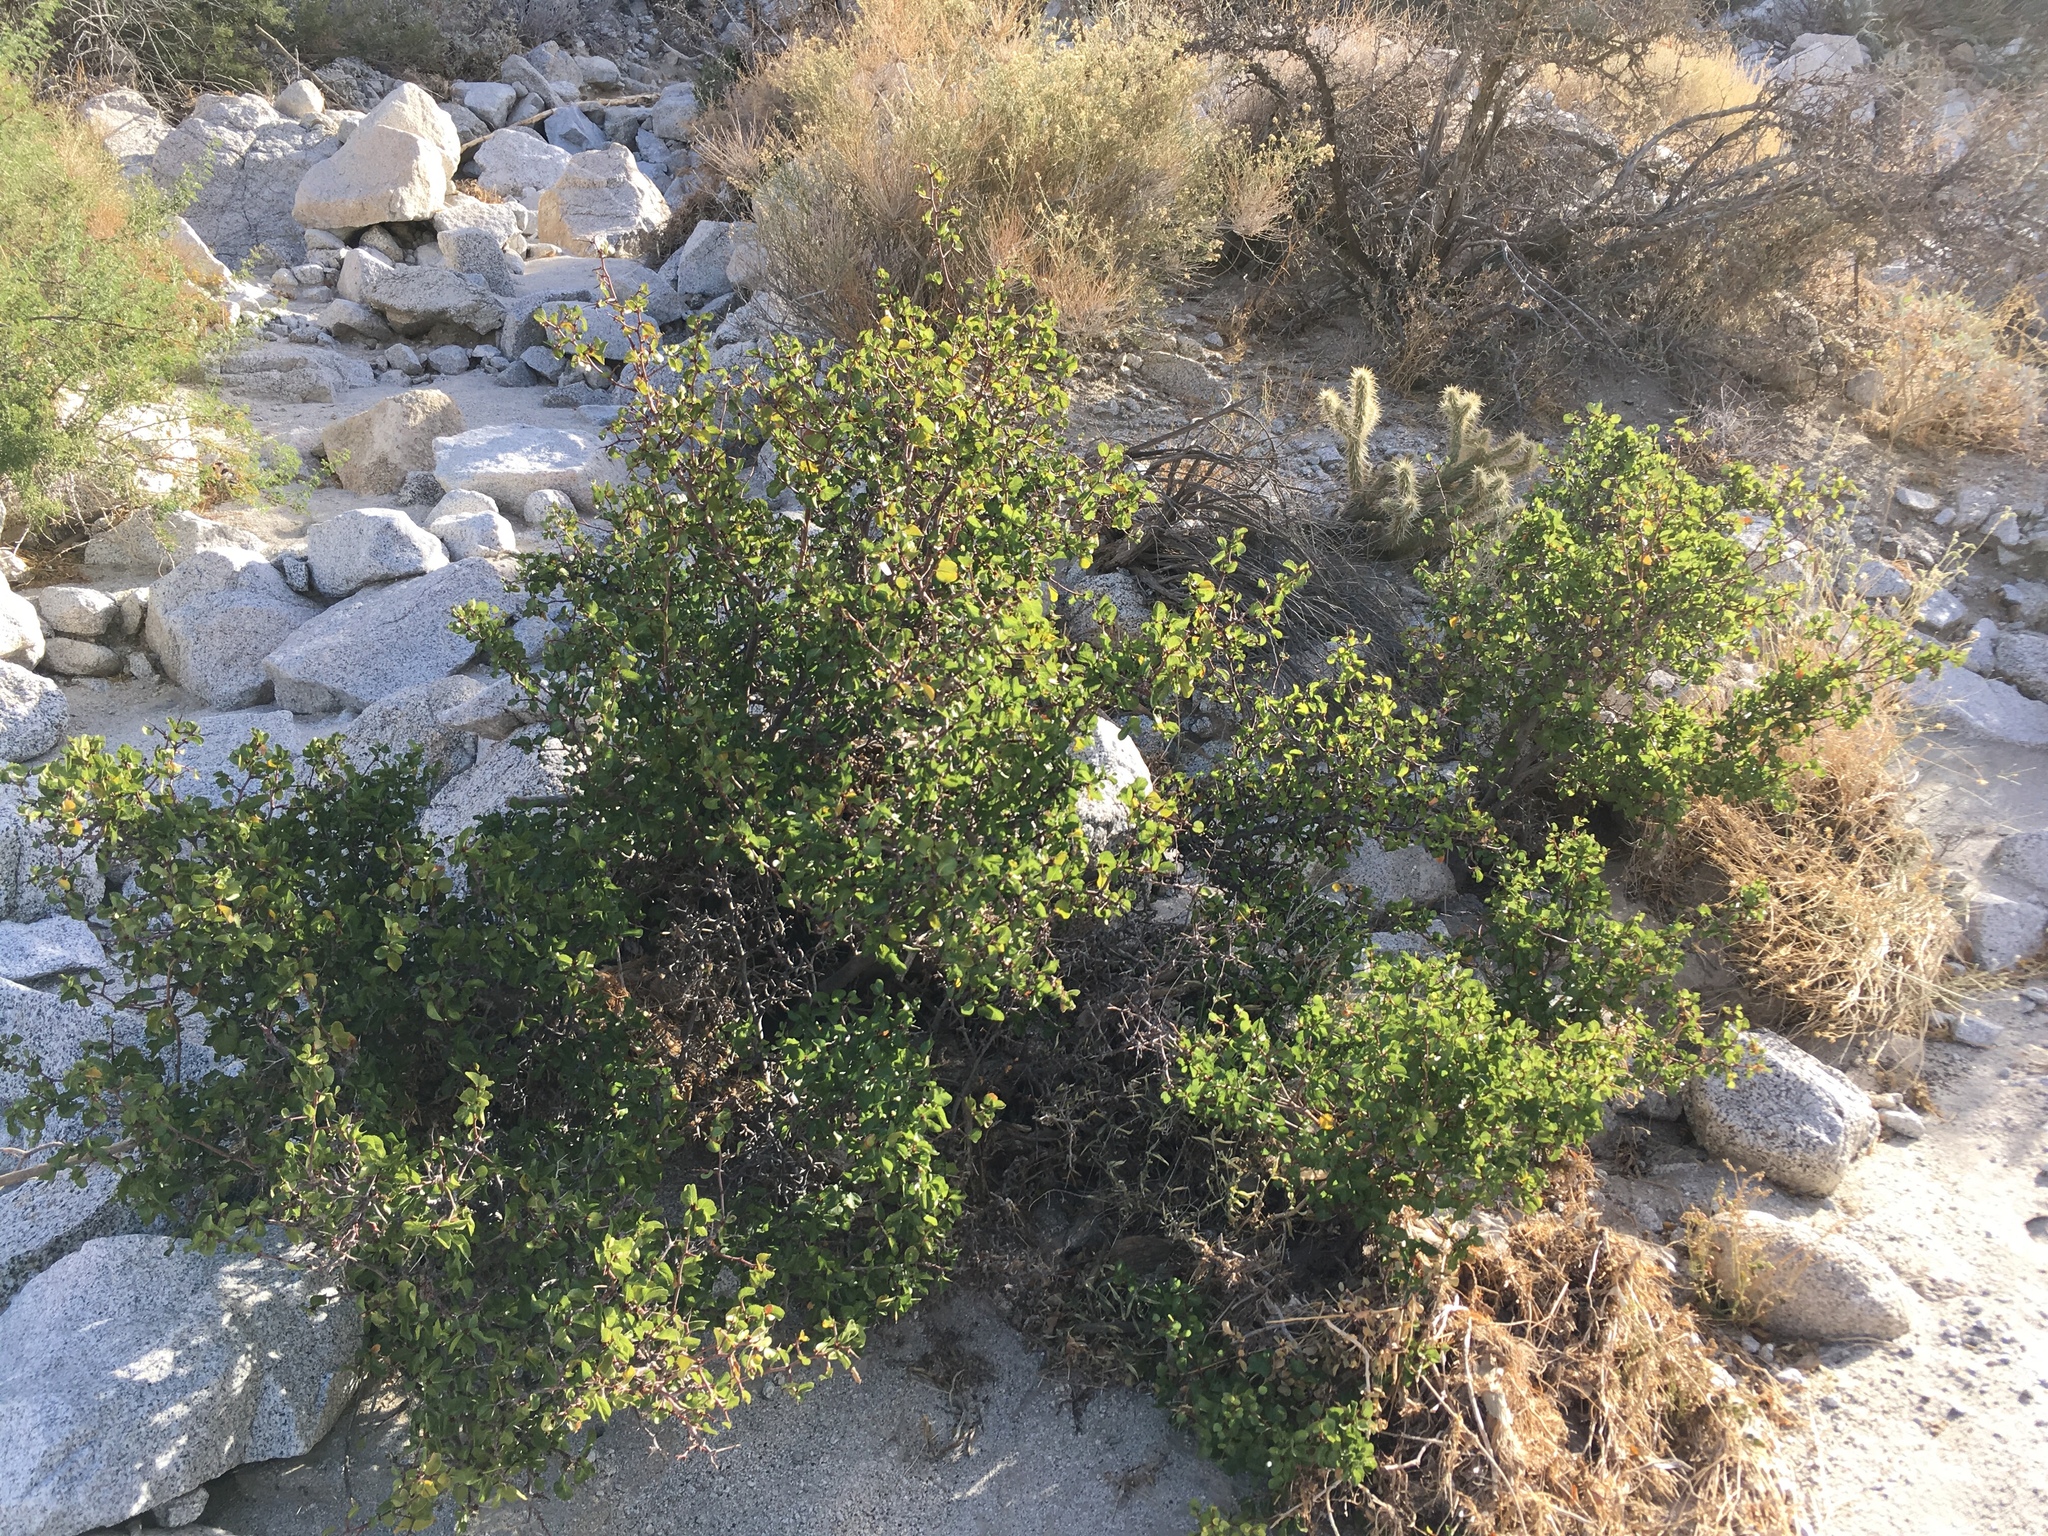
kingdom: Plantae
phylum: Tracheophyta
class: Magnoliopsida
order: Rosales
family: Rosaceae
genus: Prunus
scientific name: Prunus fremontii
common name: Desert apricot
